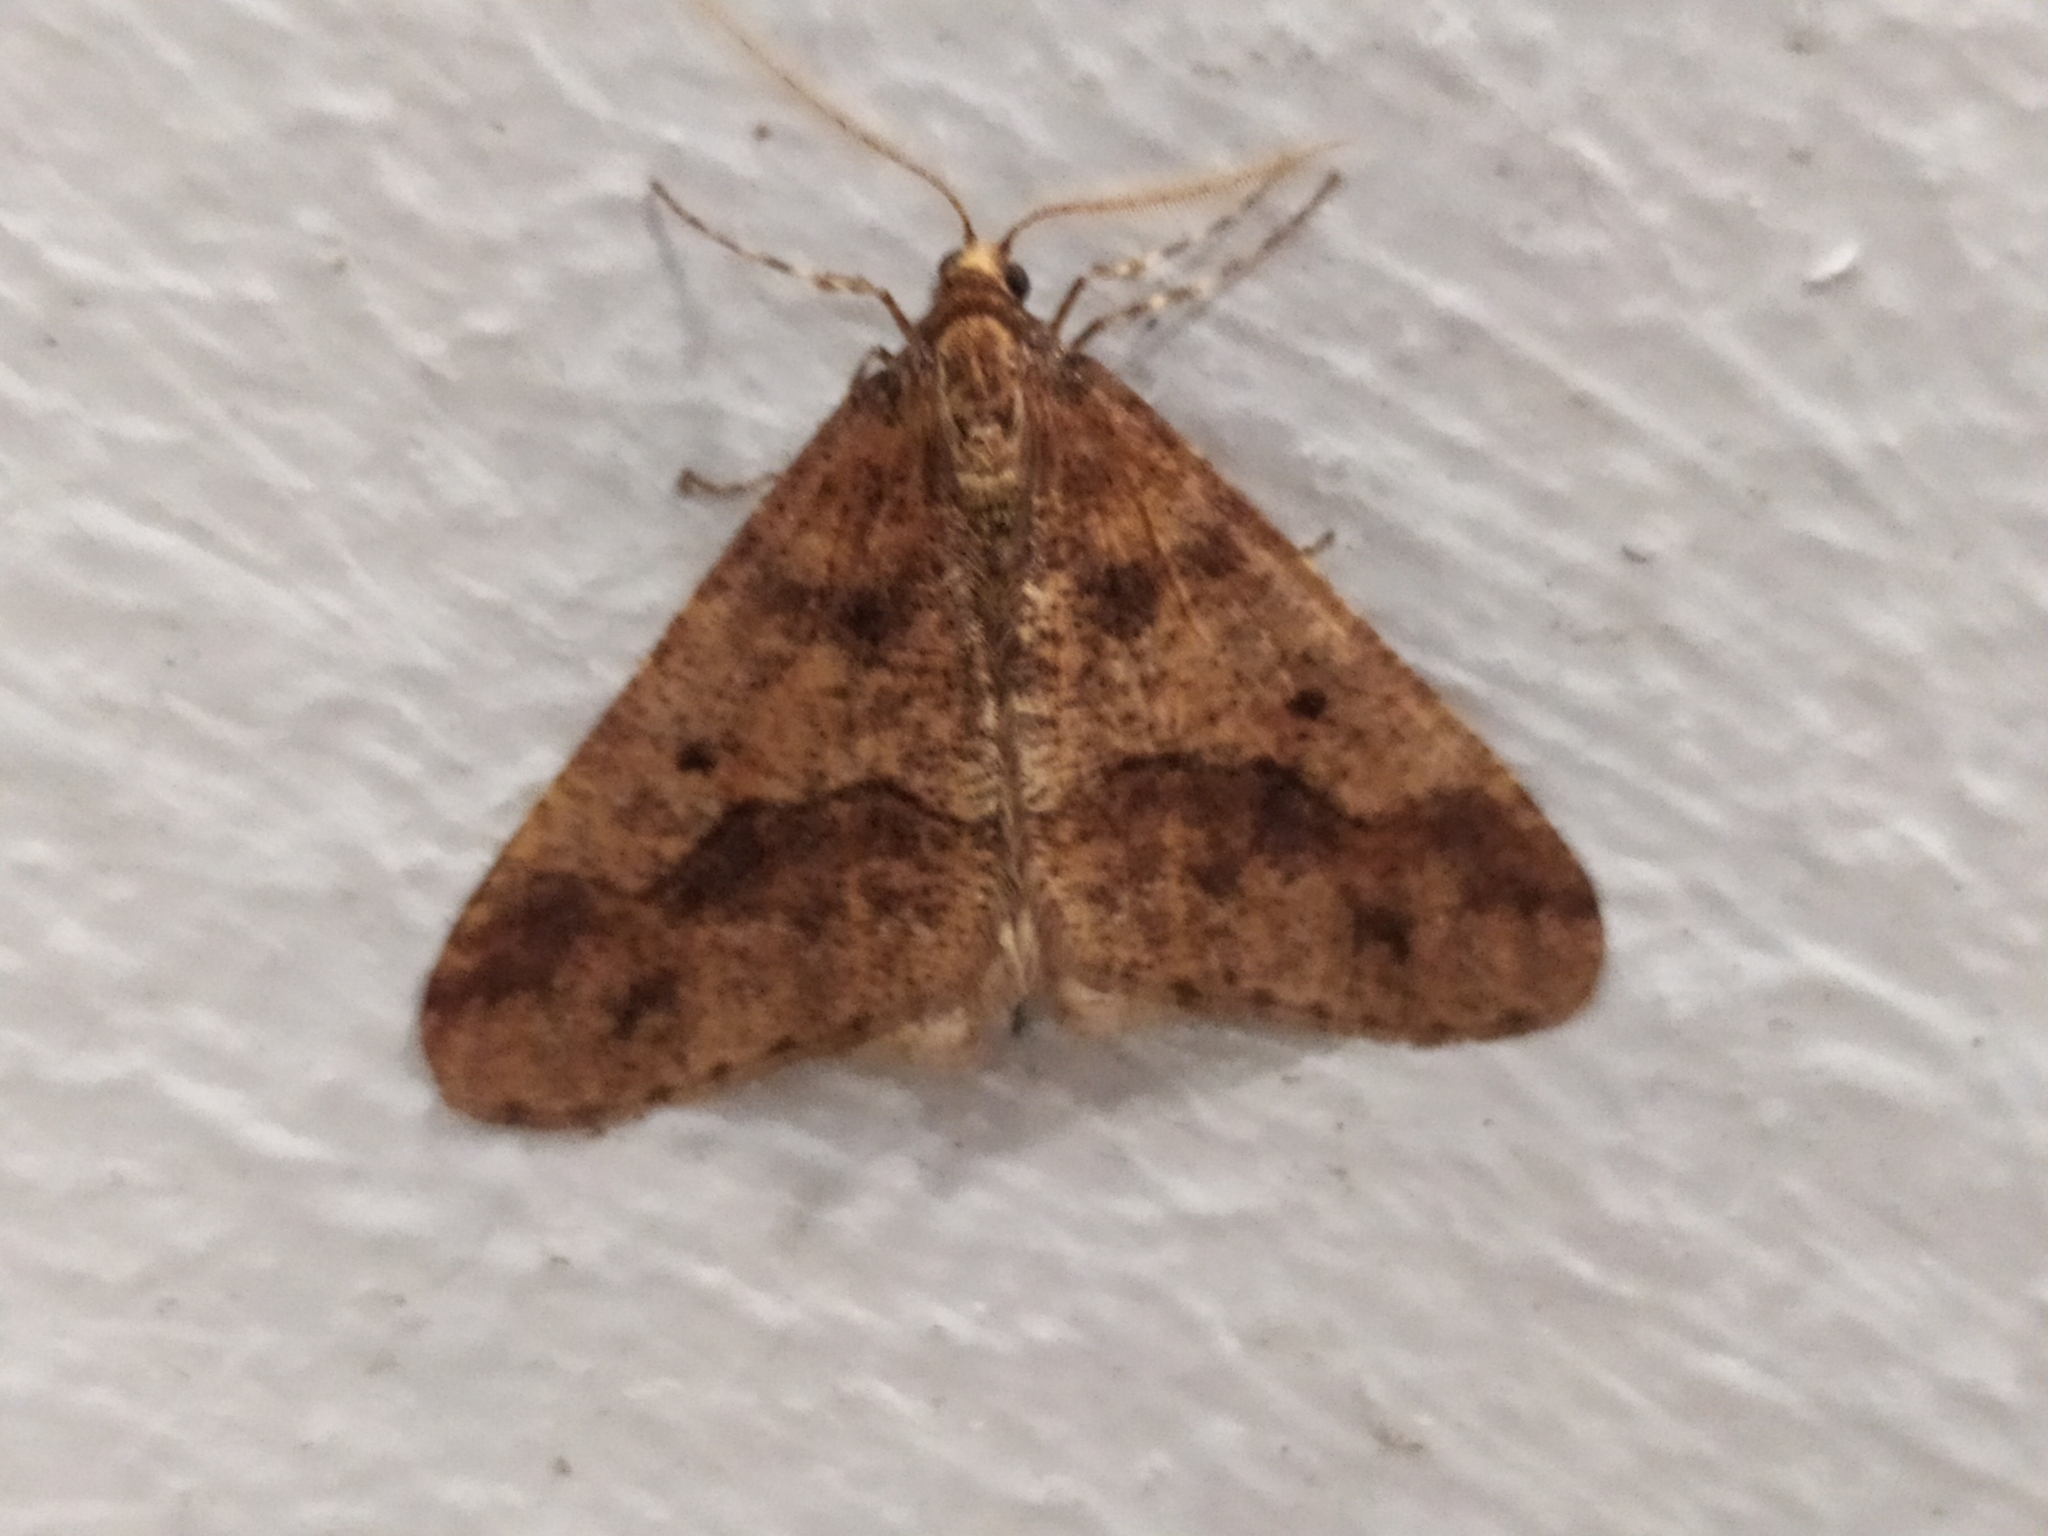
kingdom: Animalia
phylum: Arthropoda
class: Insecta
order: Lepidoptera
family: Geometridae
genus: Erannis
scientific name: Erannis defoliaria
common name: Mottled umber
